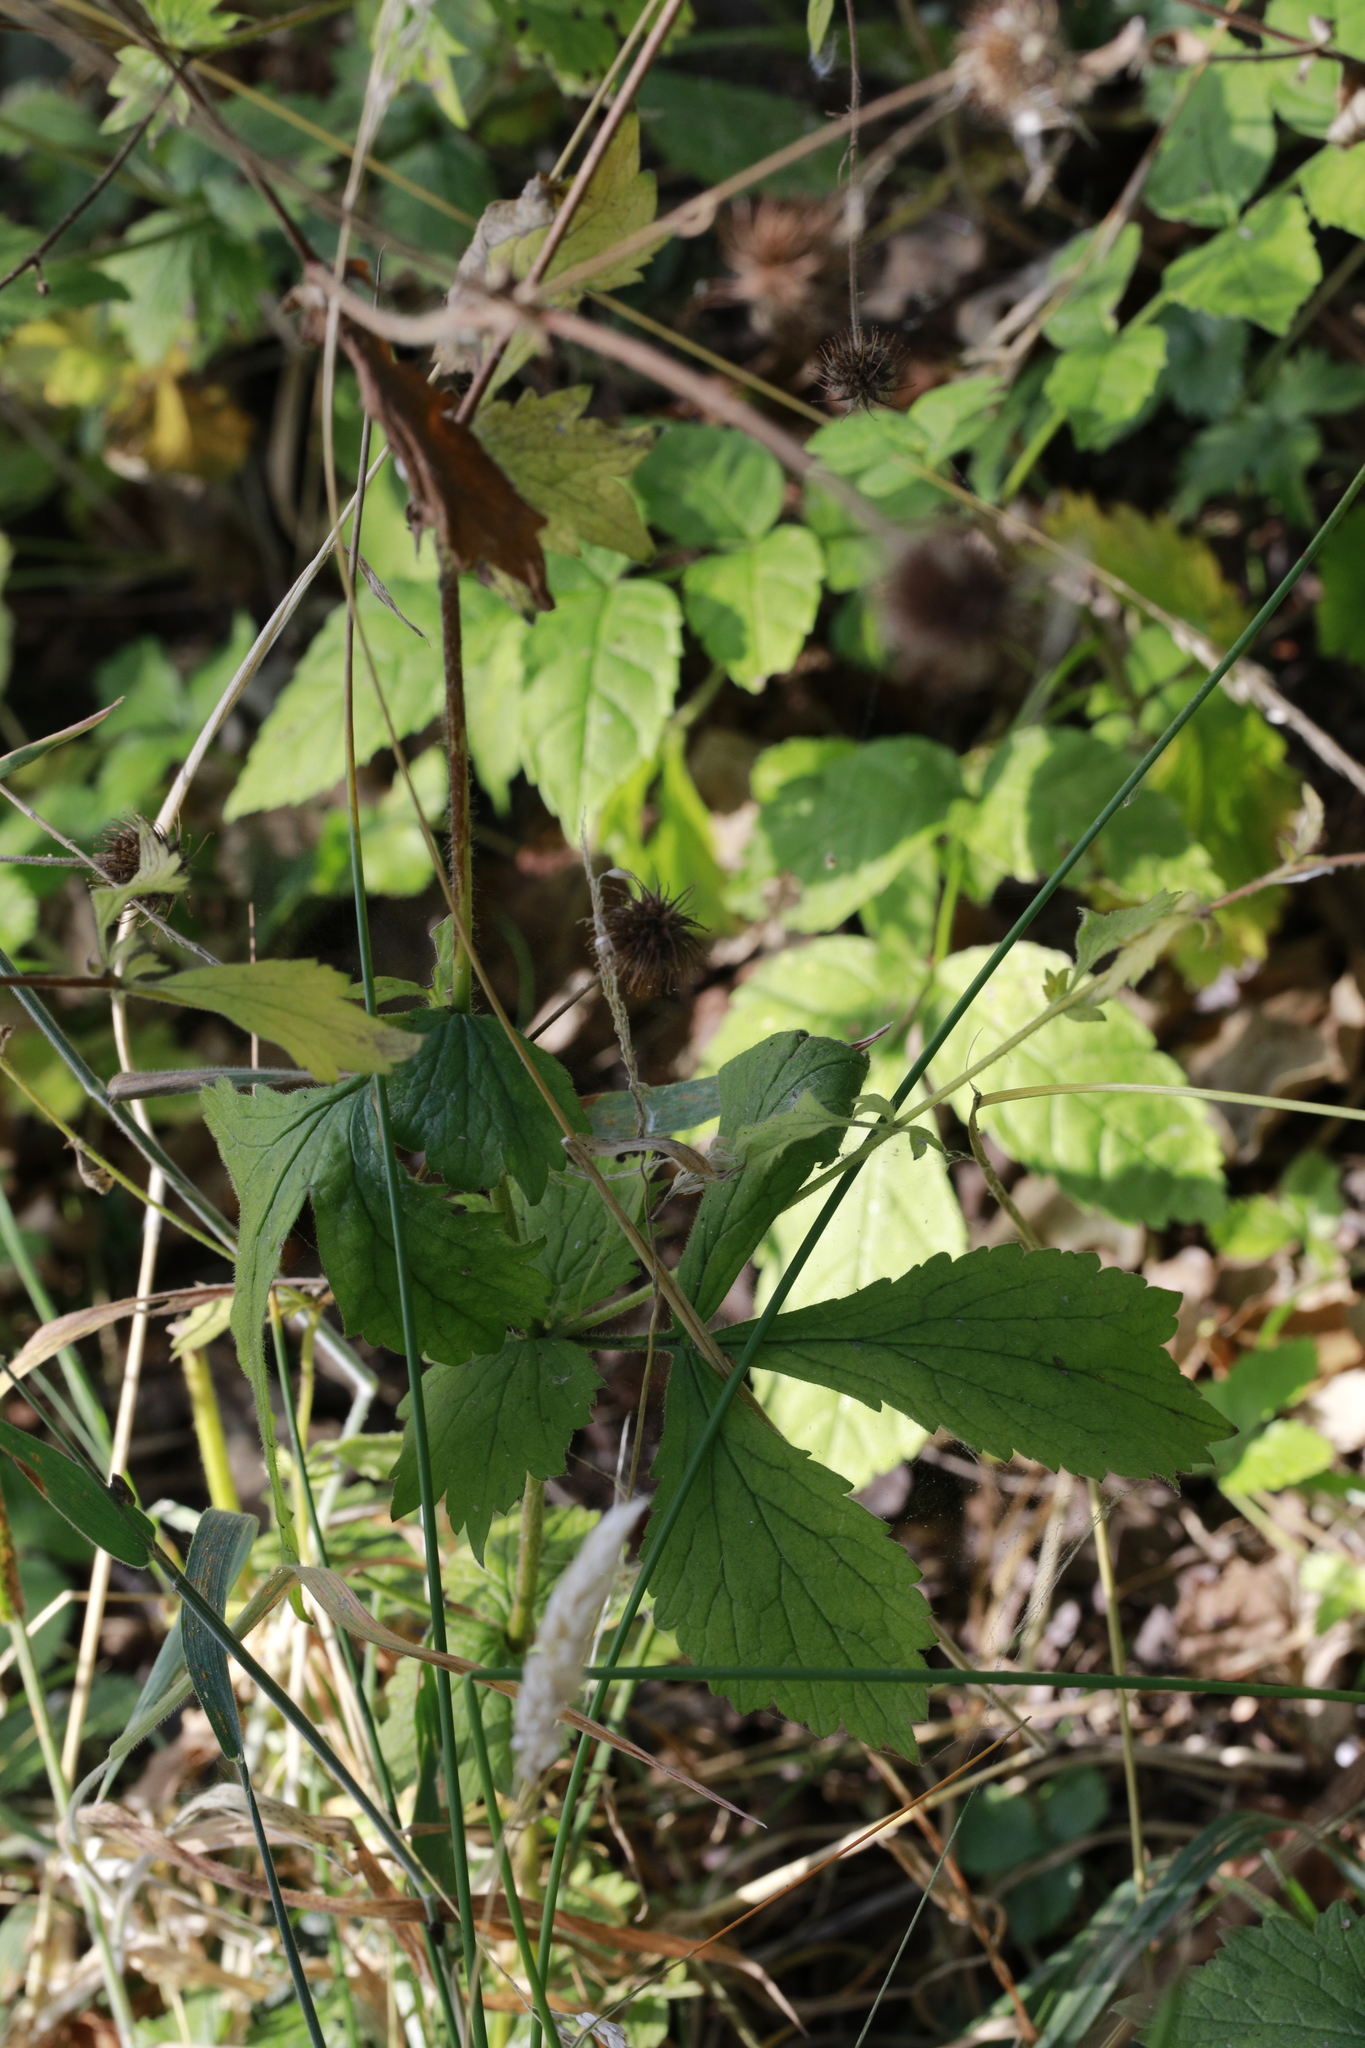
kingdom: Plantae
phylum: Tracheophyta
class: Magnoliopsida
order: Rosales
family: Rosaceae
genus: Geum
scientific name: Geum urbanum
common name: Wood avens
